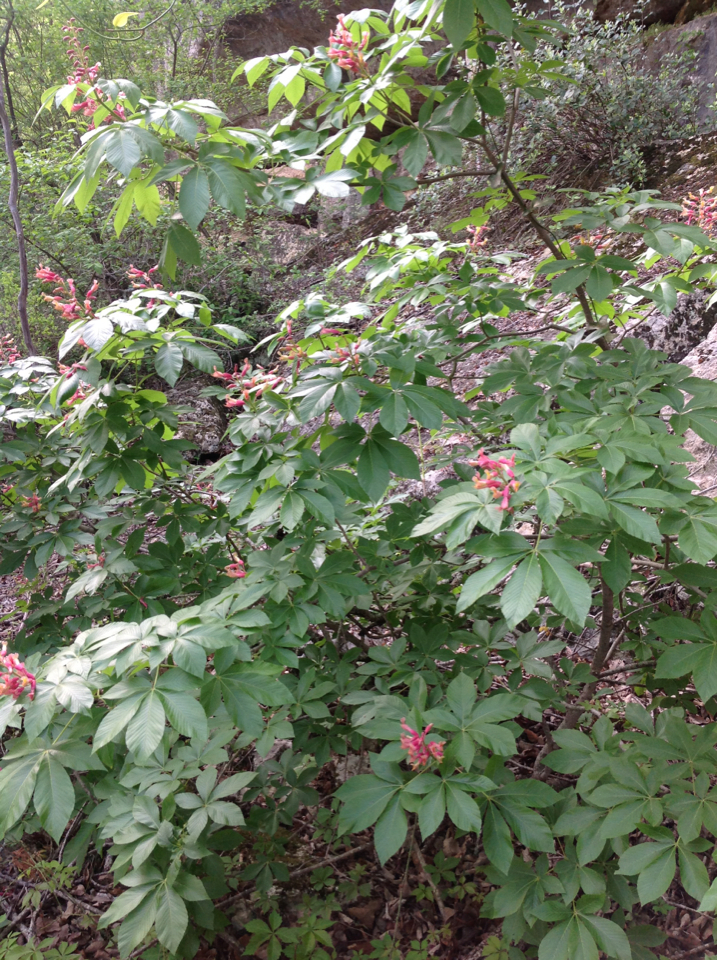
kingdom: Plantae
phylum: Tracheophyta
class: Magnoliopsida
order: Sapindales
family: Sapindaceae
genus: Aesculus
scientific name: Aesculus pavia
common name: Red buckeye
